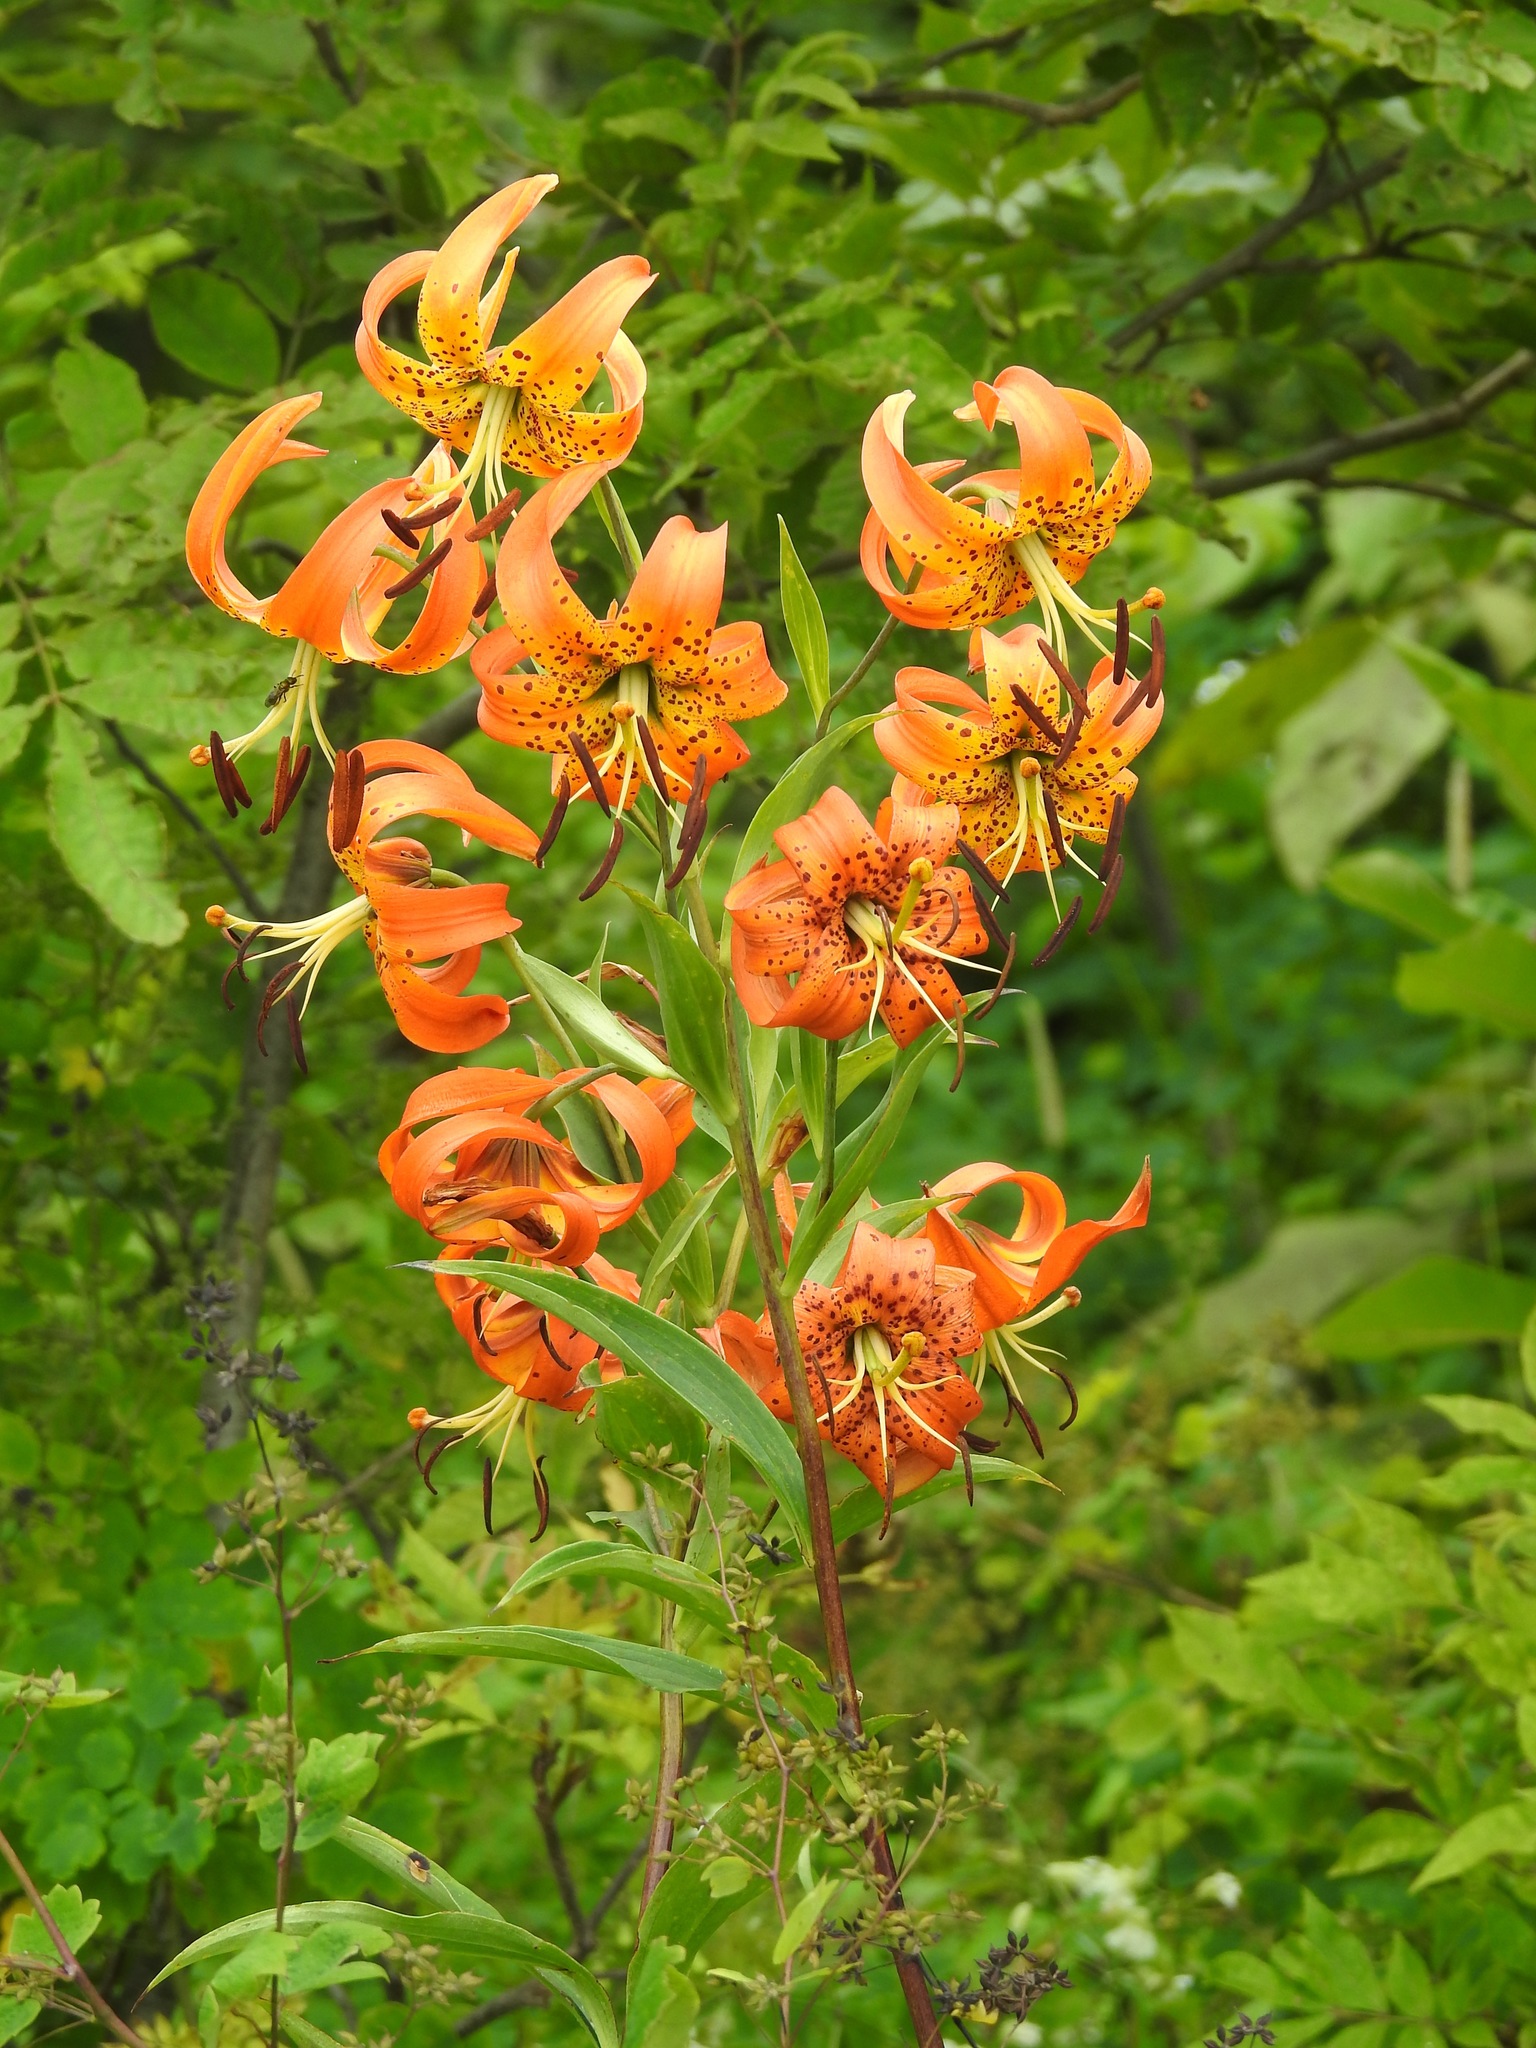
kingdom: Plantae
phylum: Tracheophyta
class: Liliopsida
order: Liliales
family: Liliaceae
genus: Lilium
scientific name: Lilium superbum
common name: American turk's-cap lily
